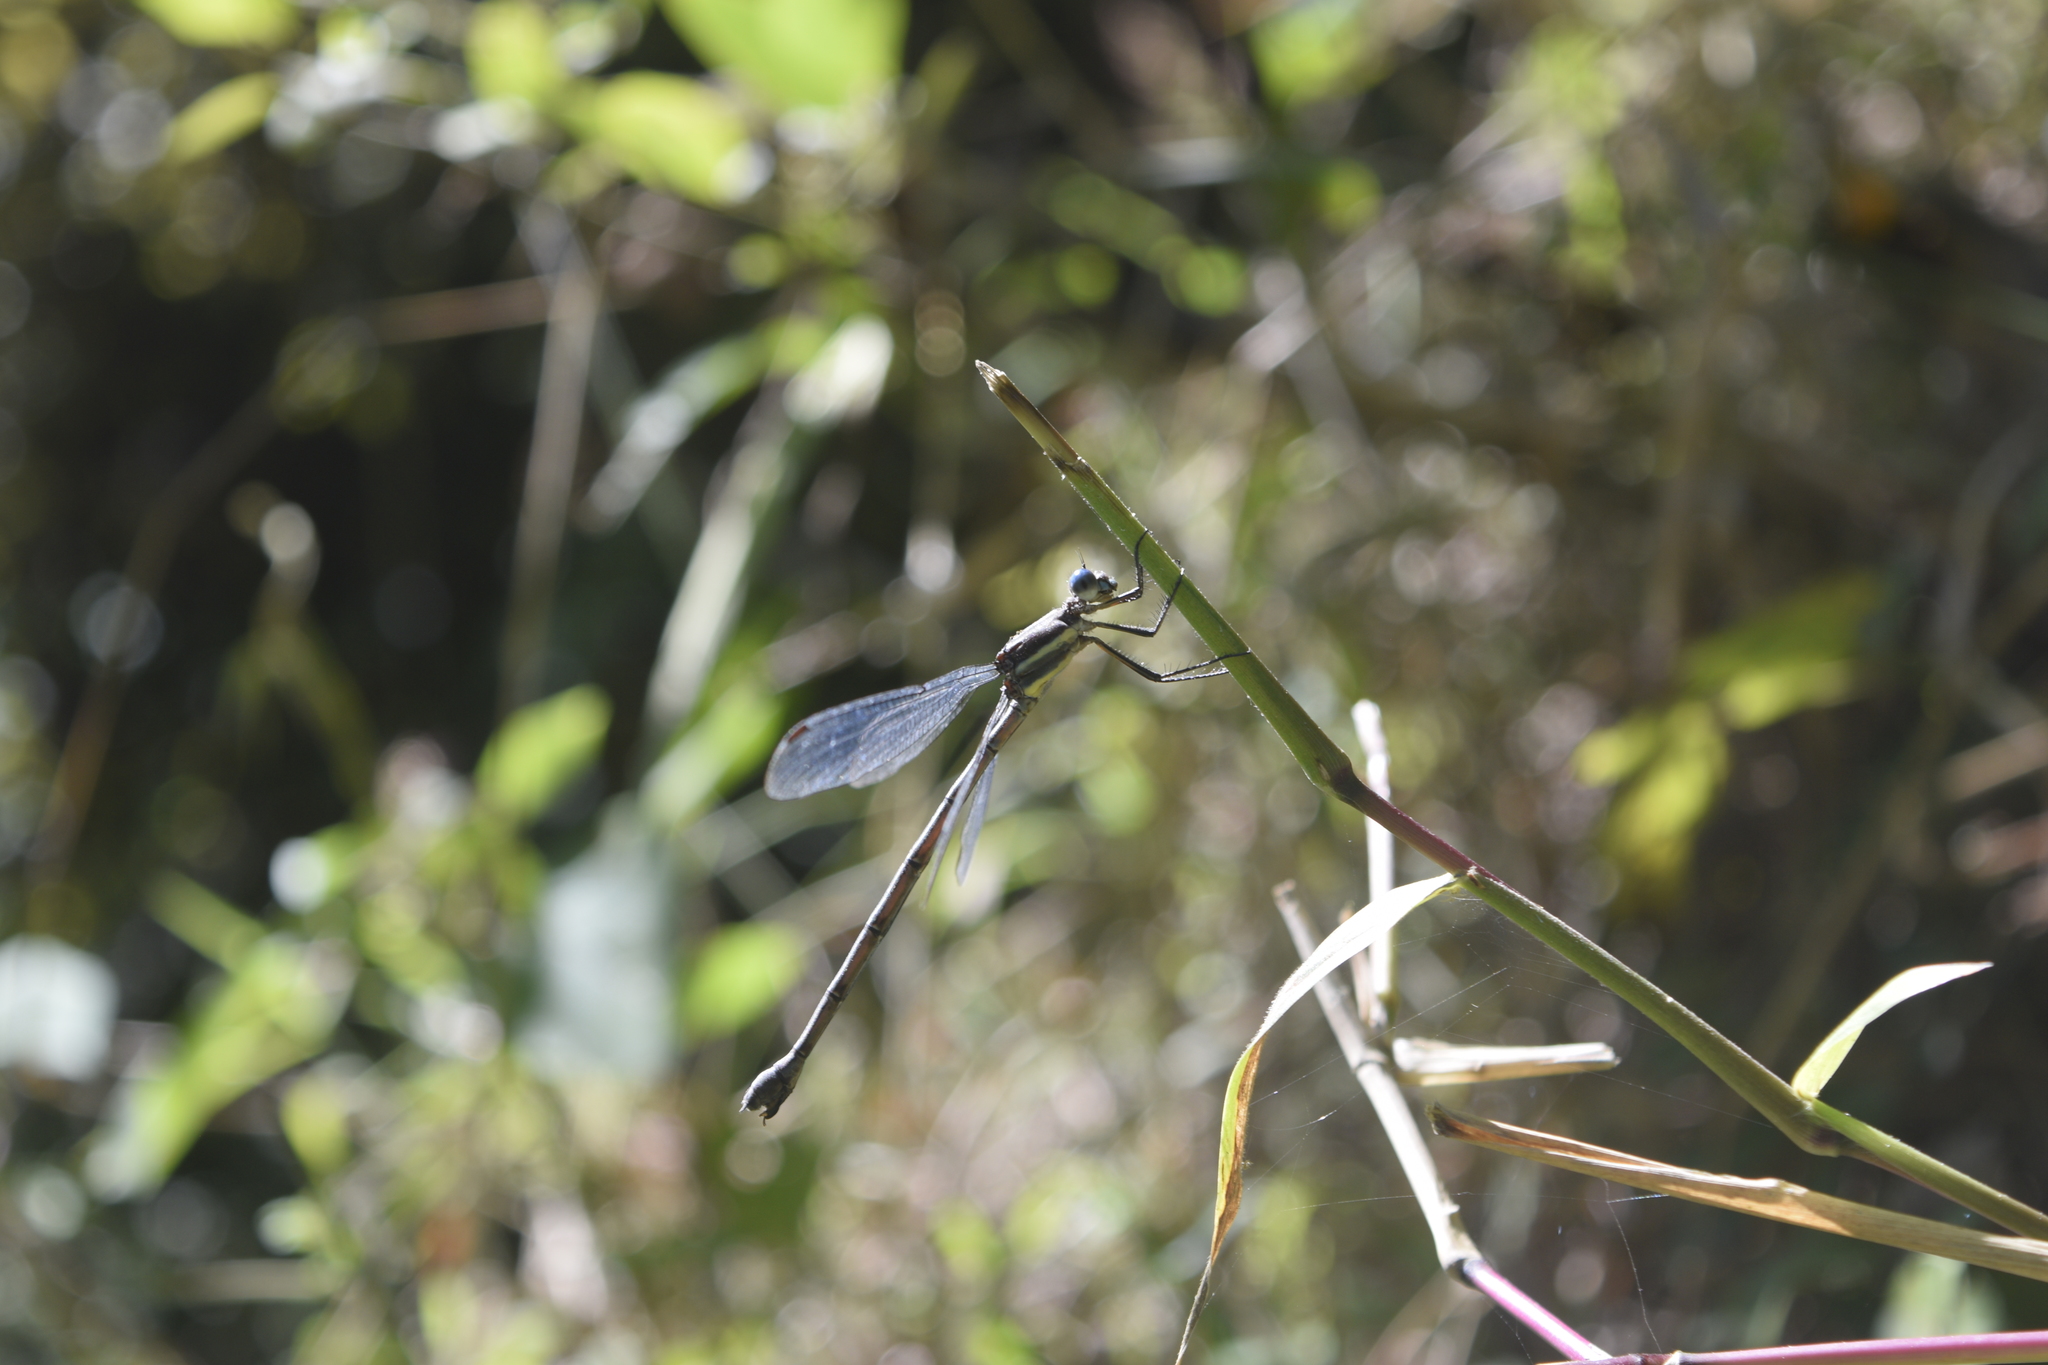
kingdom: Animalia
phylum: Arthropoda
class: Insecta
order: Odonata
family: Lestidae
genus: Archilestes
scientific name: Archilestes grandis
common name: Great spreadwing
